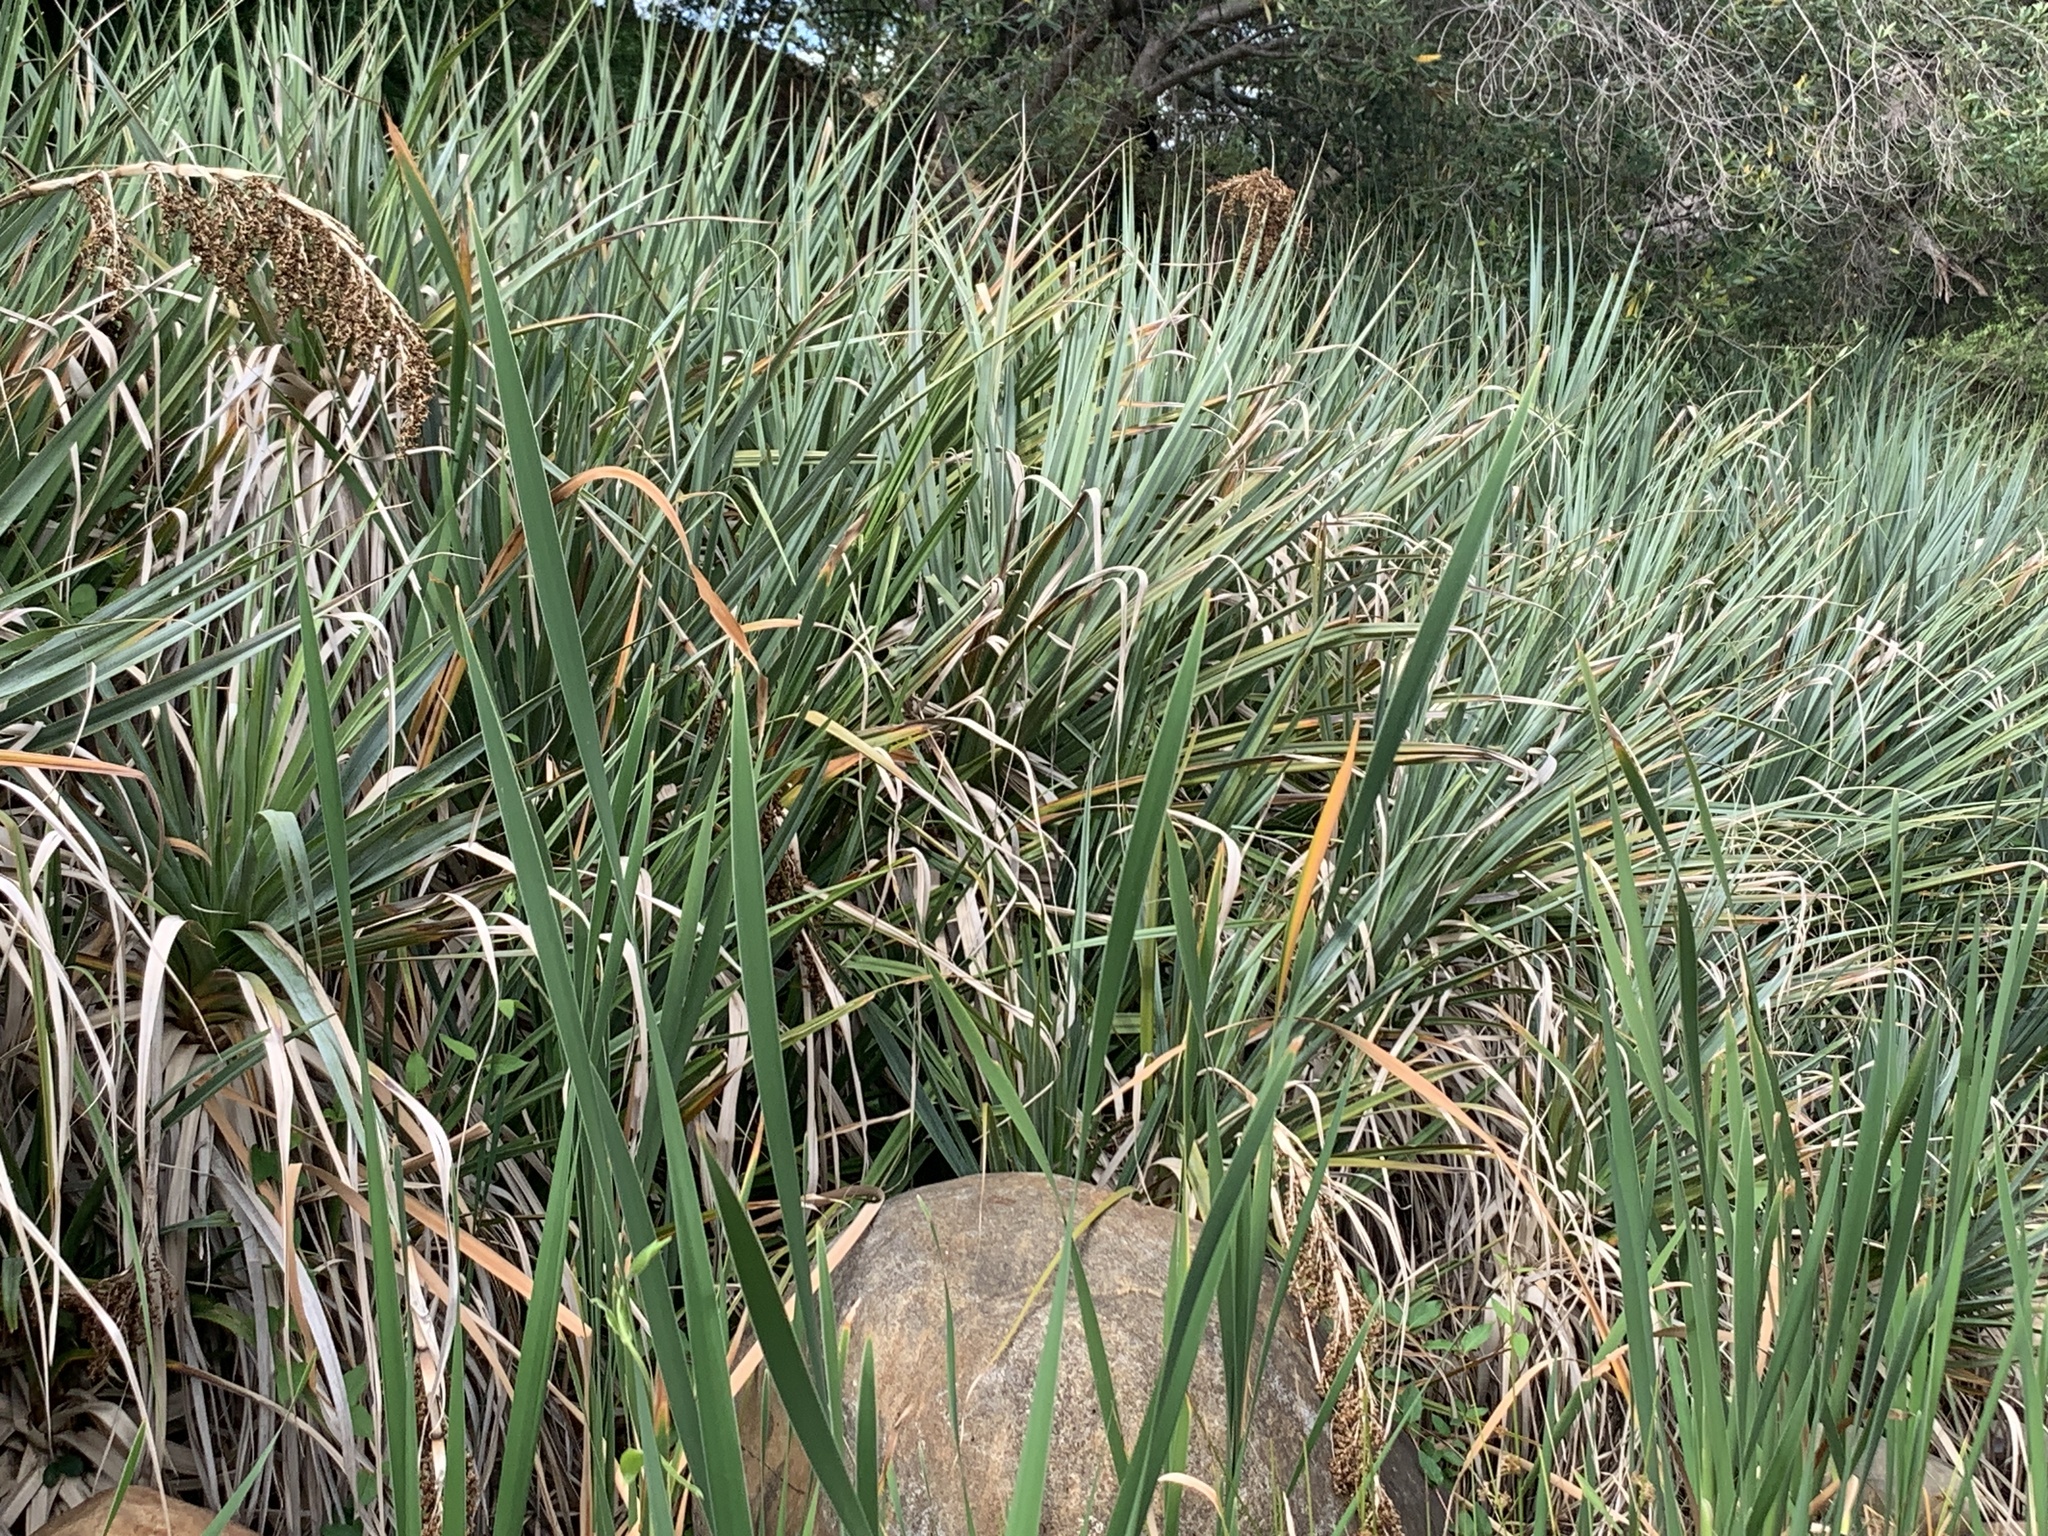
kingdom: Plantae
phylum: Tracheophyta
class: Liliopsida
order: Poales
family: Thurniaceae
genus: Prionium
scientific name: Prionium serratum
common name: Palmiet
